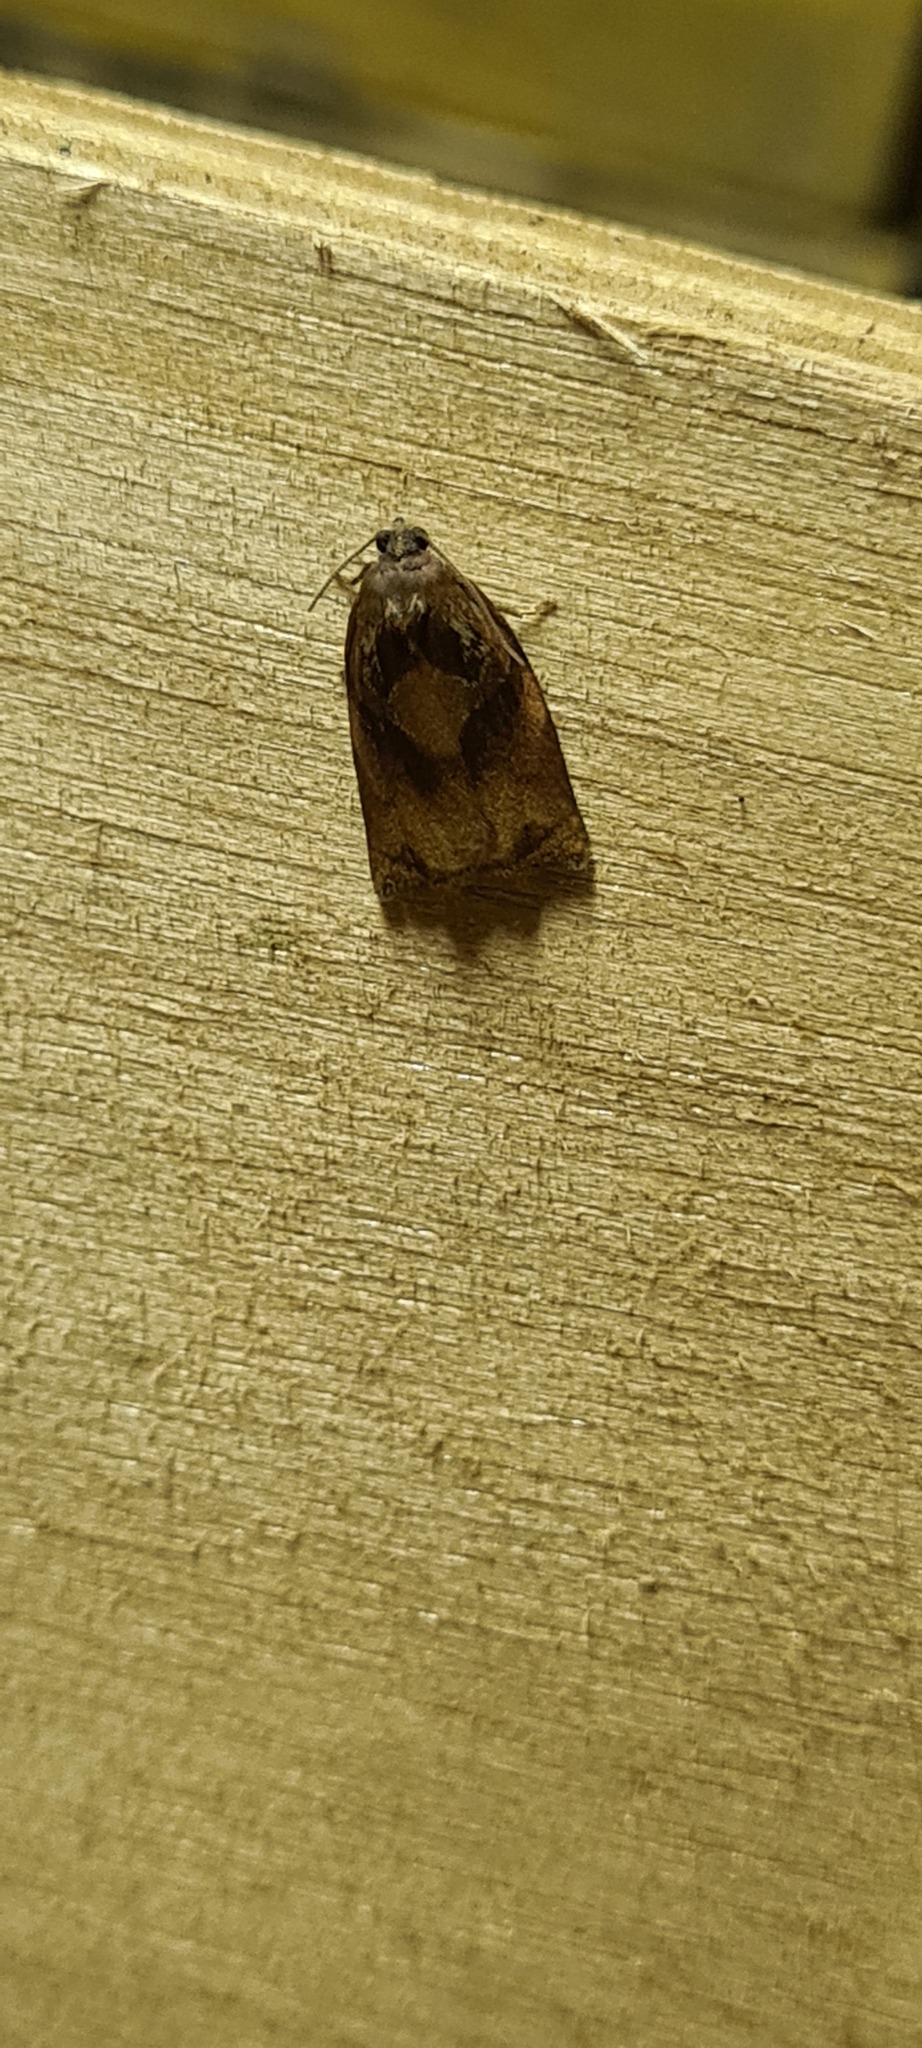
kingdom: Animalia
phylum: Arthropoda
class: Insecta
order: Lepidoptera
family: Tortricidae
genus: Archips
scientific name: Archips podana
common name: Large fruit-tree tortrix
